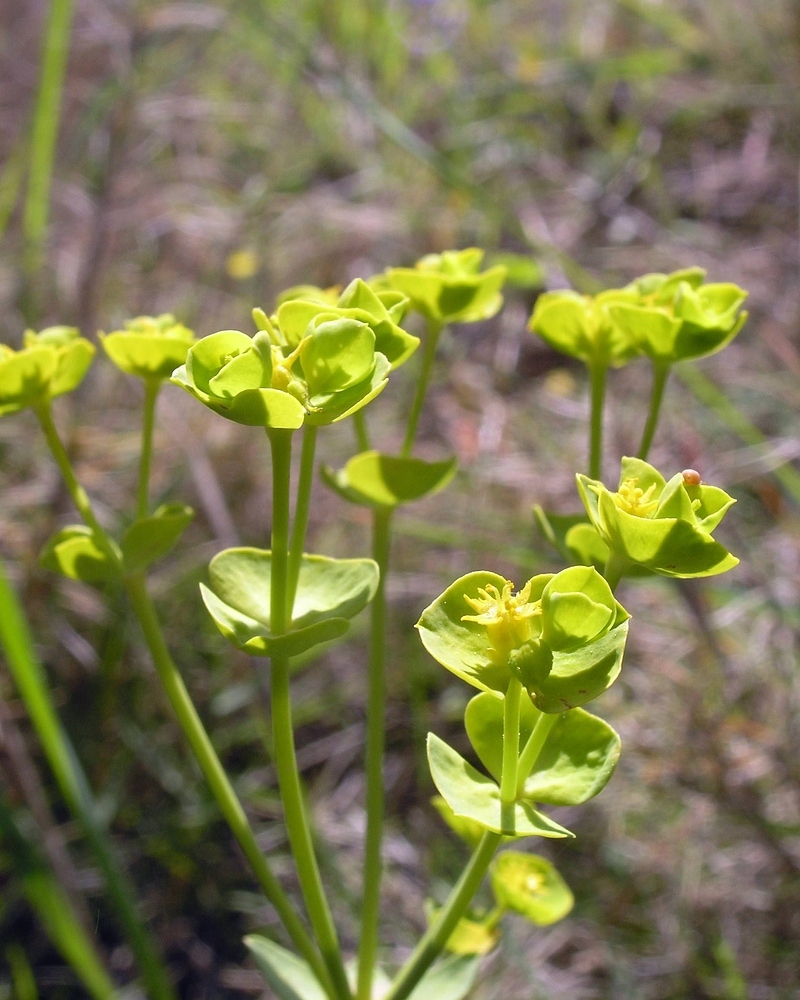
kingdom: Plantae
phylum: Tracheophyta
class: Magnoliopsida
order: Malpighiales
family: Euphorbiaceae
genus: Euphorbia
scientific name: Euphorbia segetalis
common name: Corn spurge
